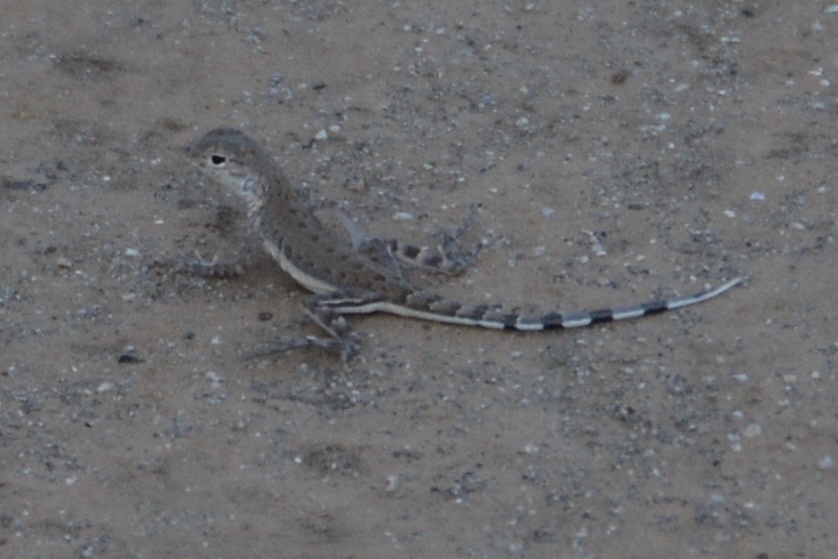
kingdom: Animalia
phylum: Chordata
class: Squamata
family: Phrynosomatidae
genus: Callisaurus
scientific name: Callisaurus draconoides
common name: Zebra-tailed lizard
